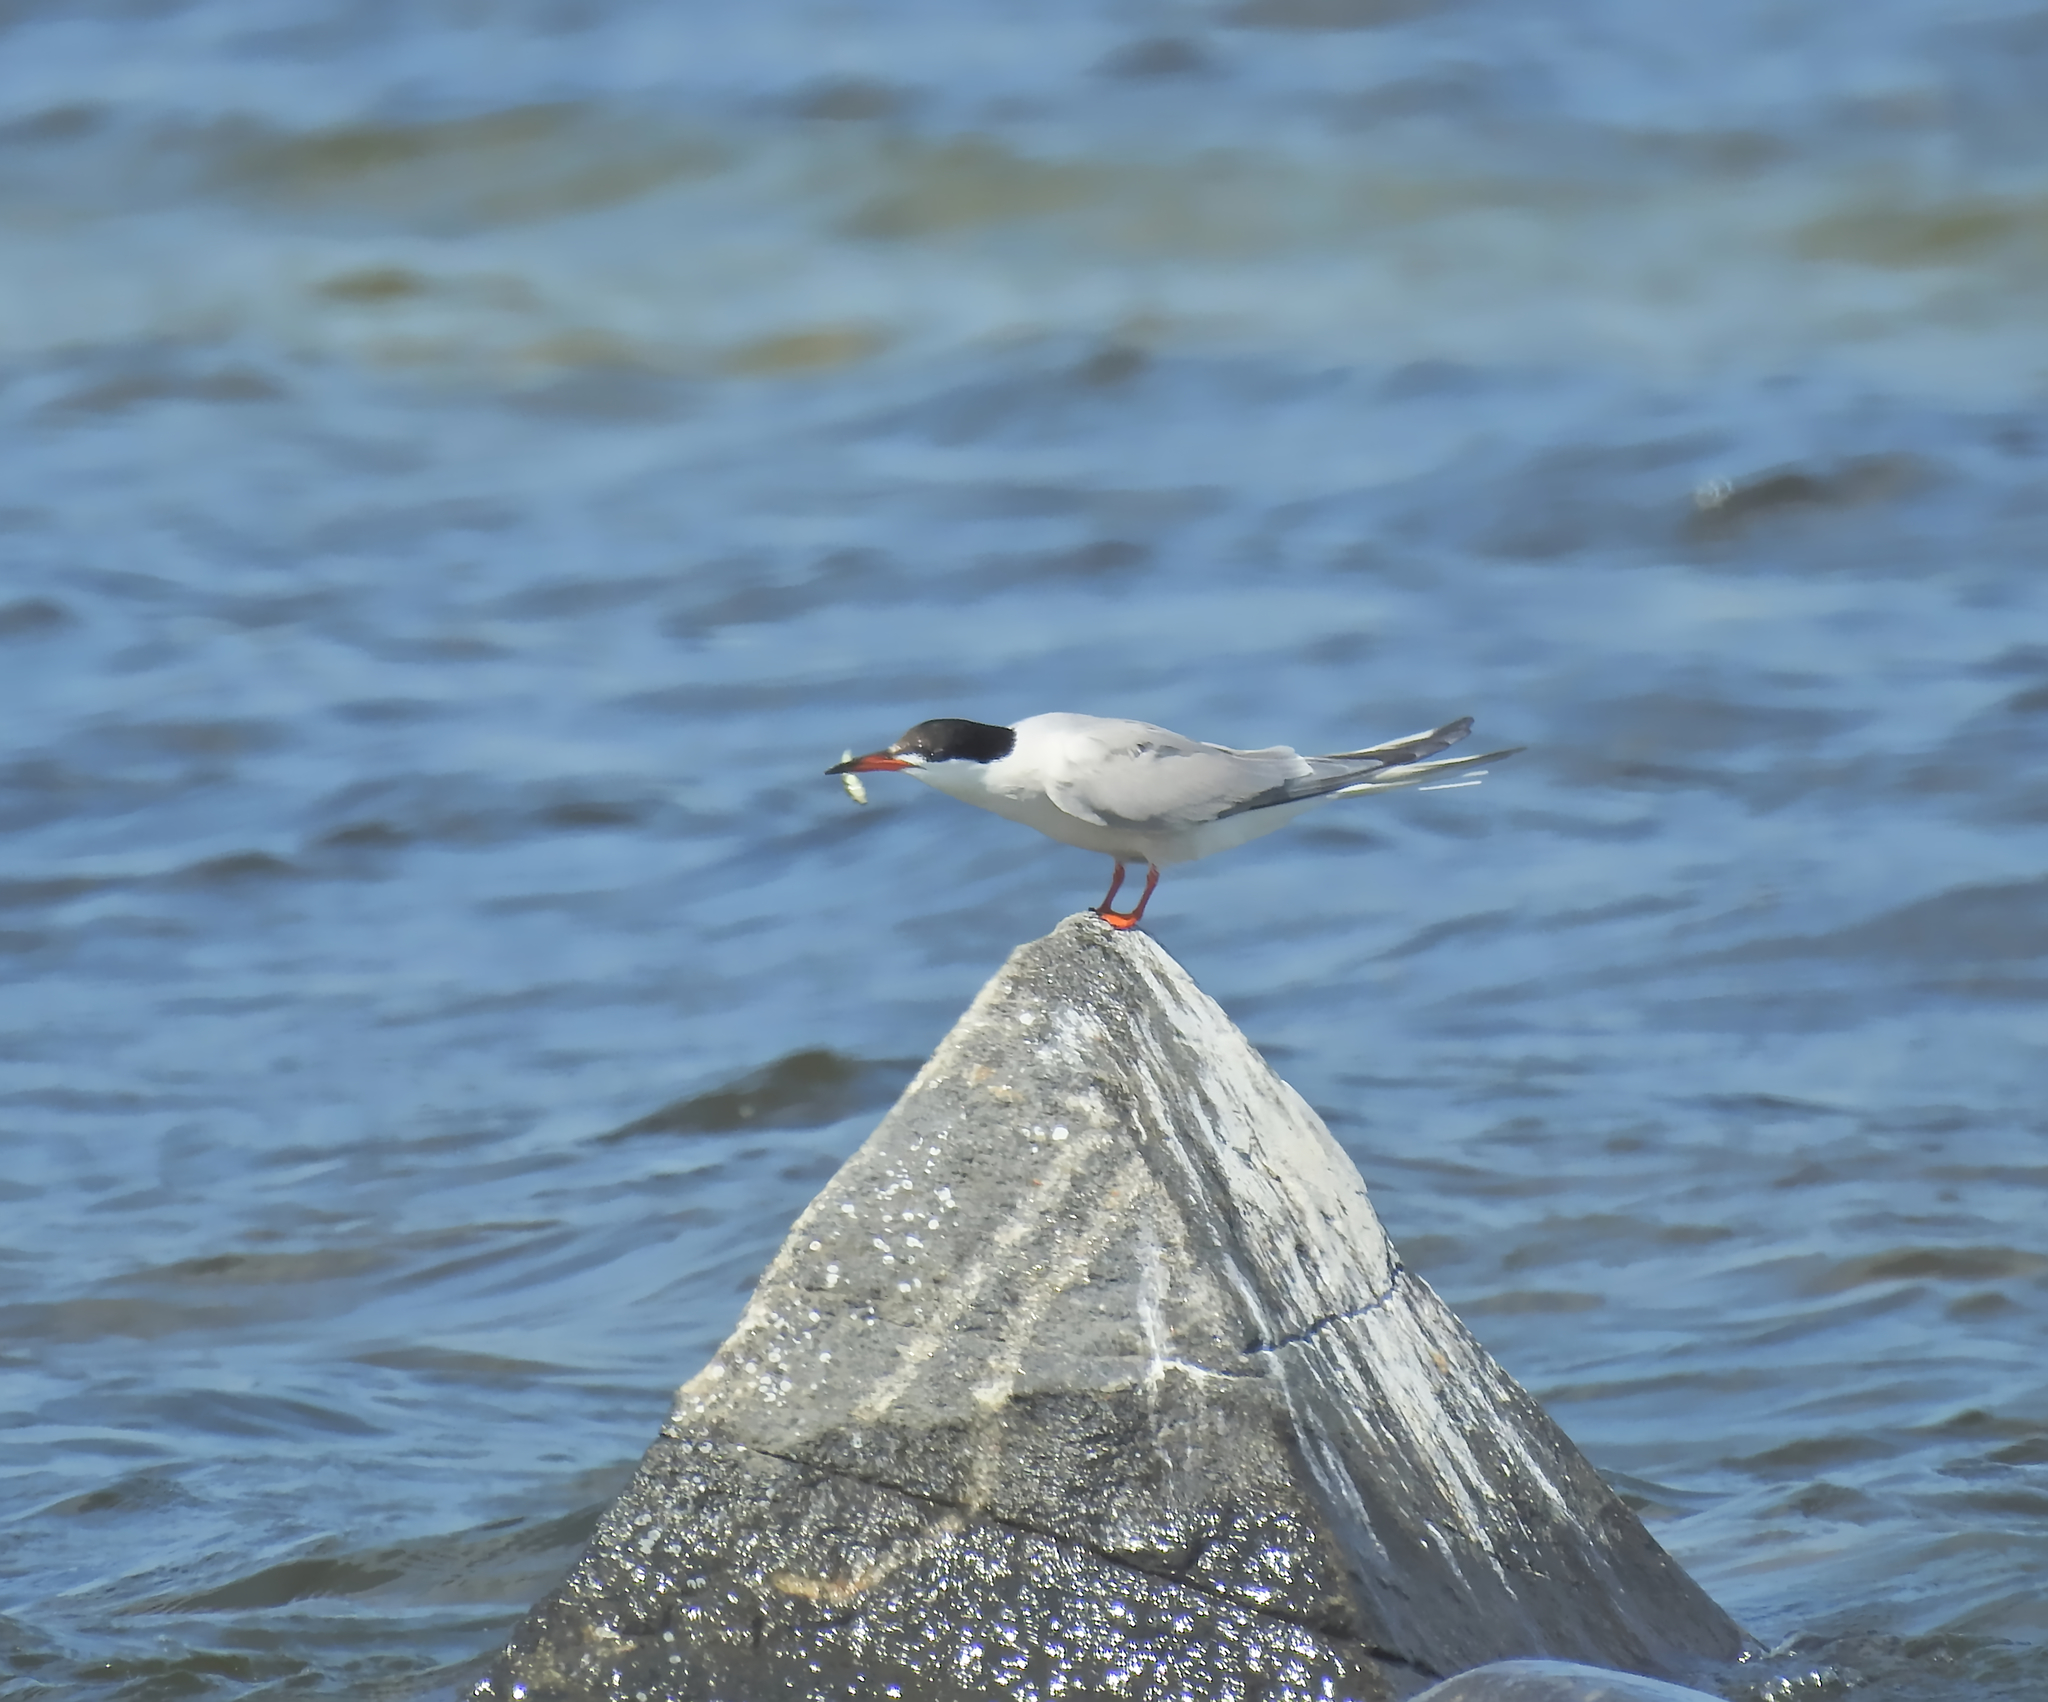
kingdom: Animalia
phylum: Chordata
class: Aves
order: Charadriiformes
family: Laridae
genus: Sterna
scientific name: Sterna hirundo
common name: Common tern
